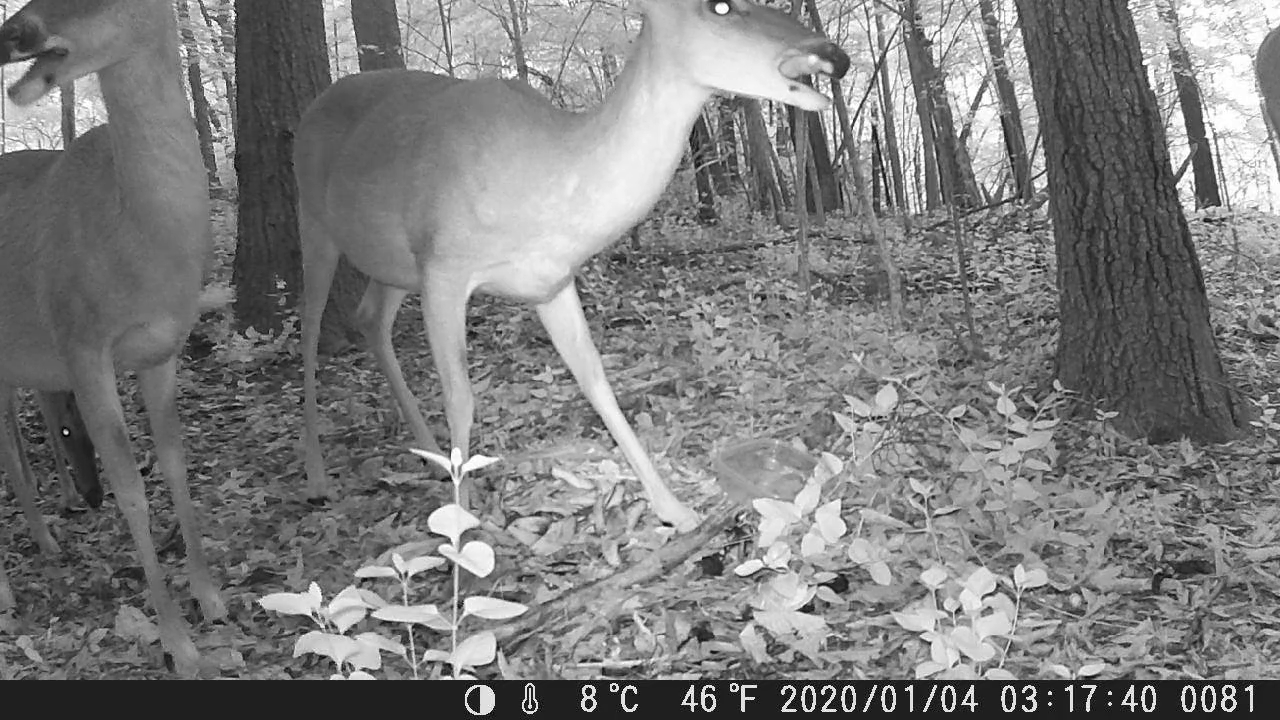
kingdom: Animalia
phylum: Chordata
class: Mammalia
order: Artiodactyla
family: Cervidae
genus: Odocoileus
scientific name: Odocoileus virginianus
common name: White-tailed deer
